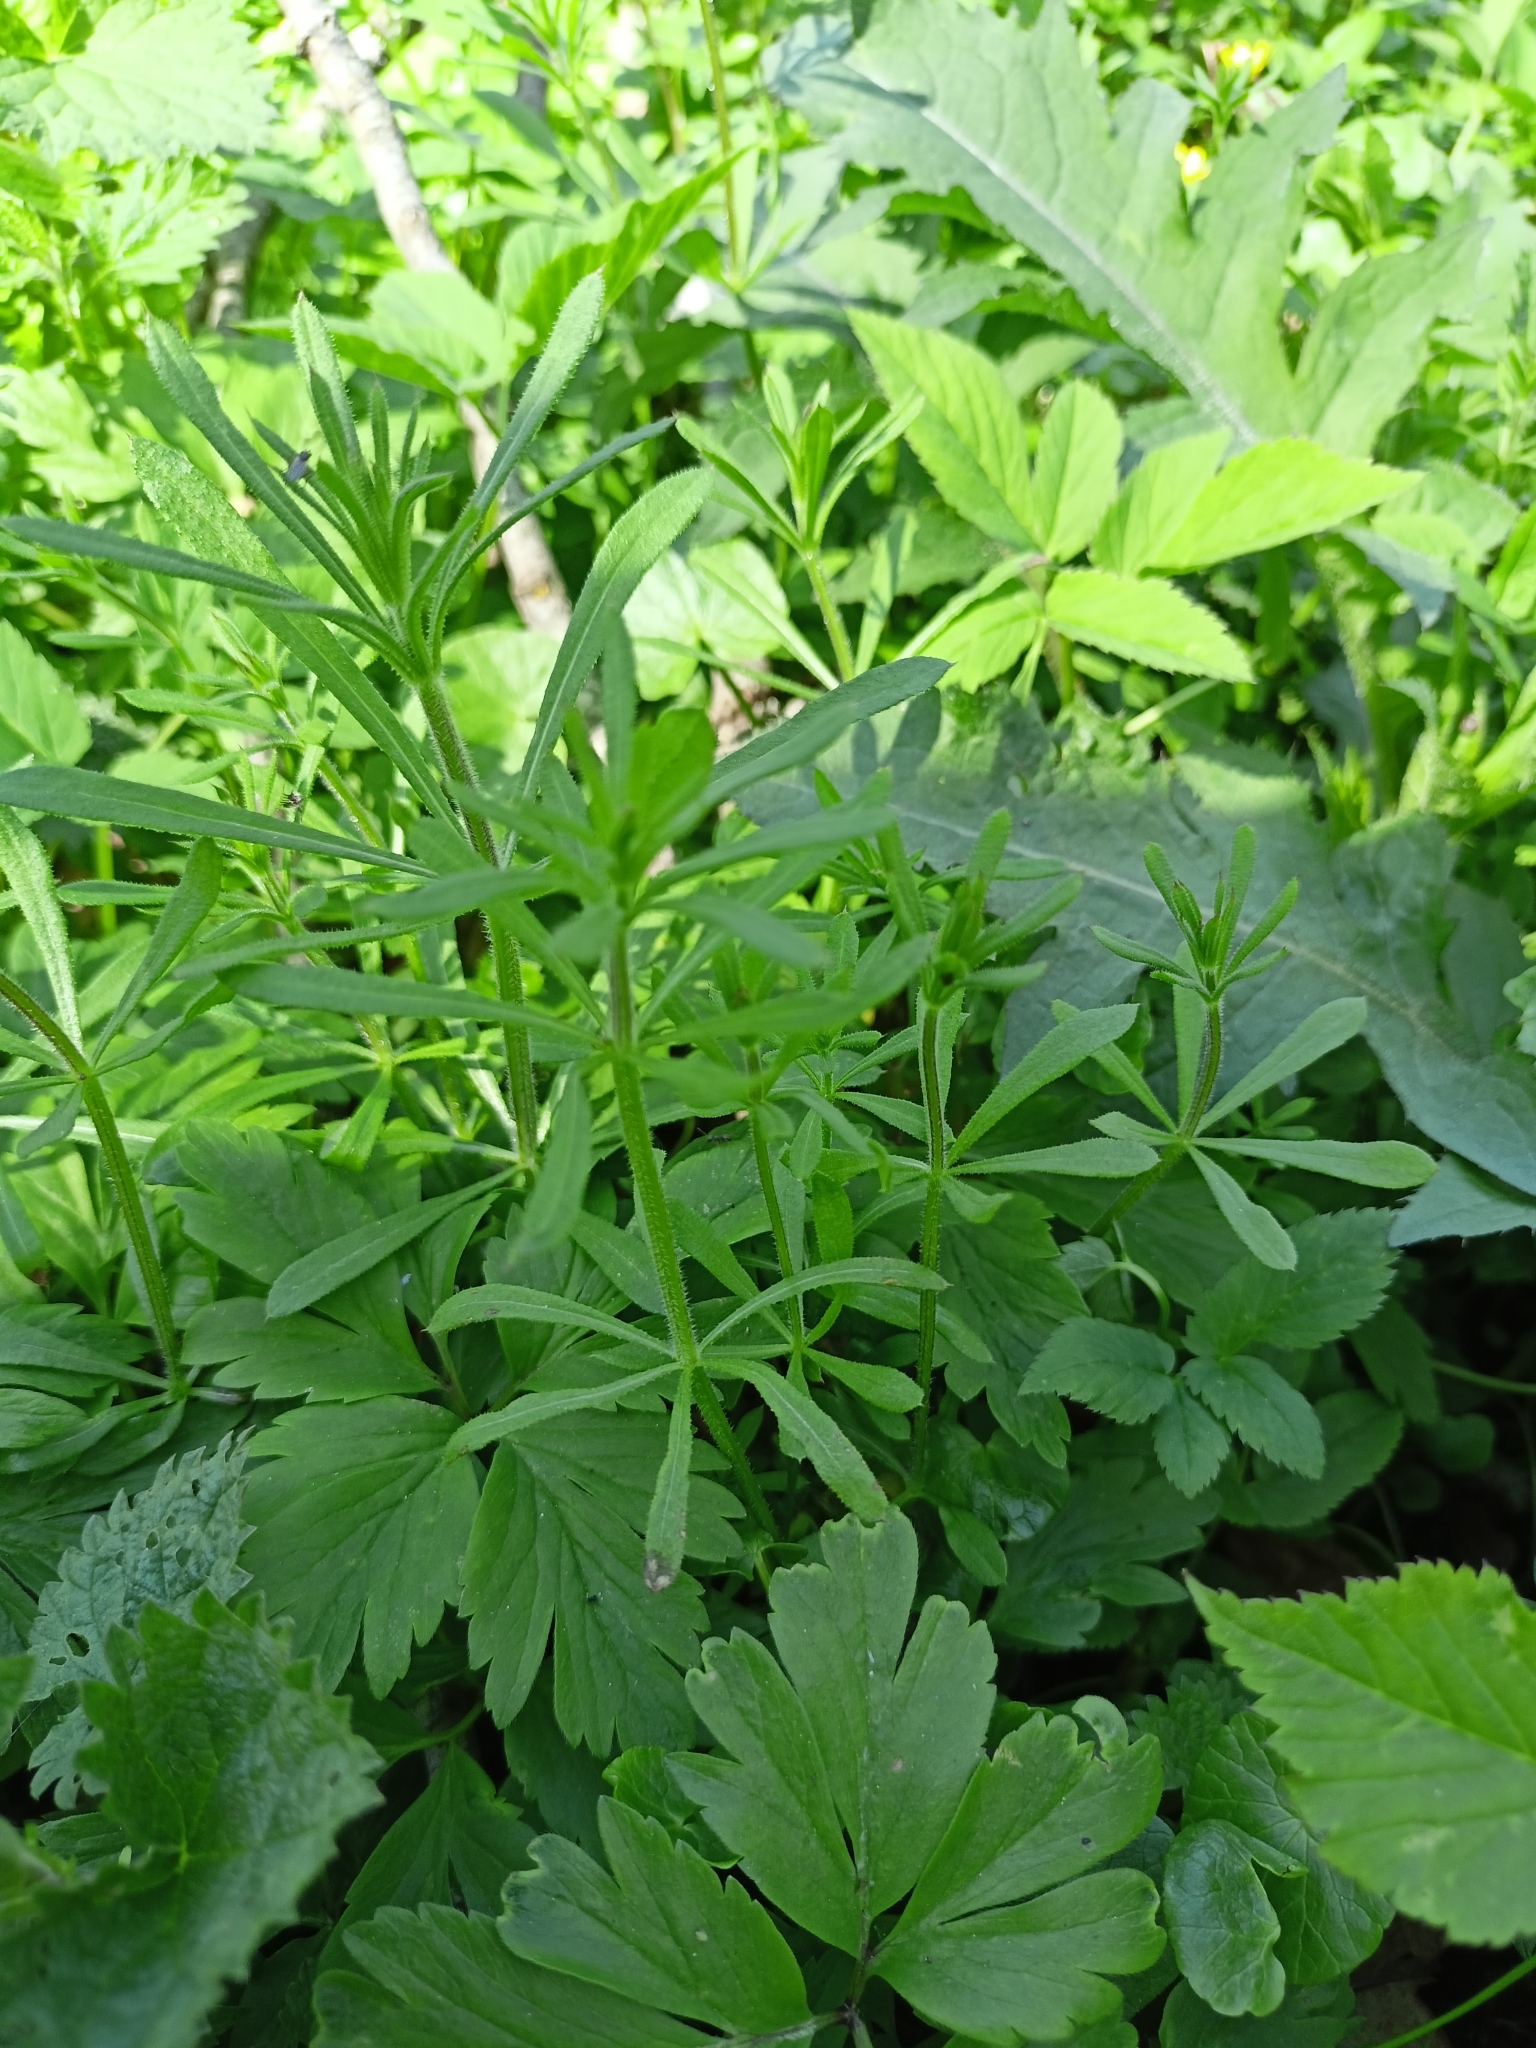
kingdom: Plantae
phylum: Tracheophyta
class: Magnoliopsida
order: Gentianales
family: Rubiaceae
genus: Galium
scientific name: Galium aparine
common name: Cleavers
